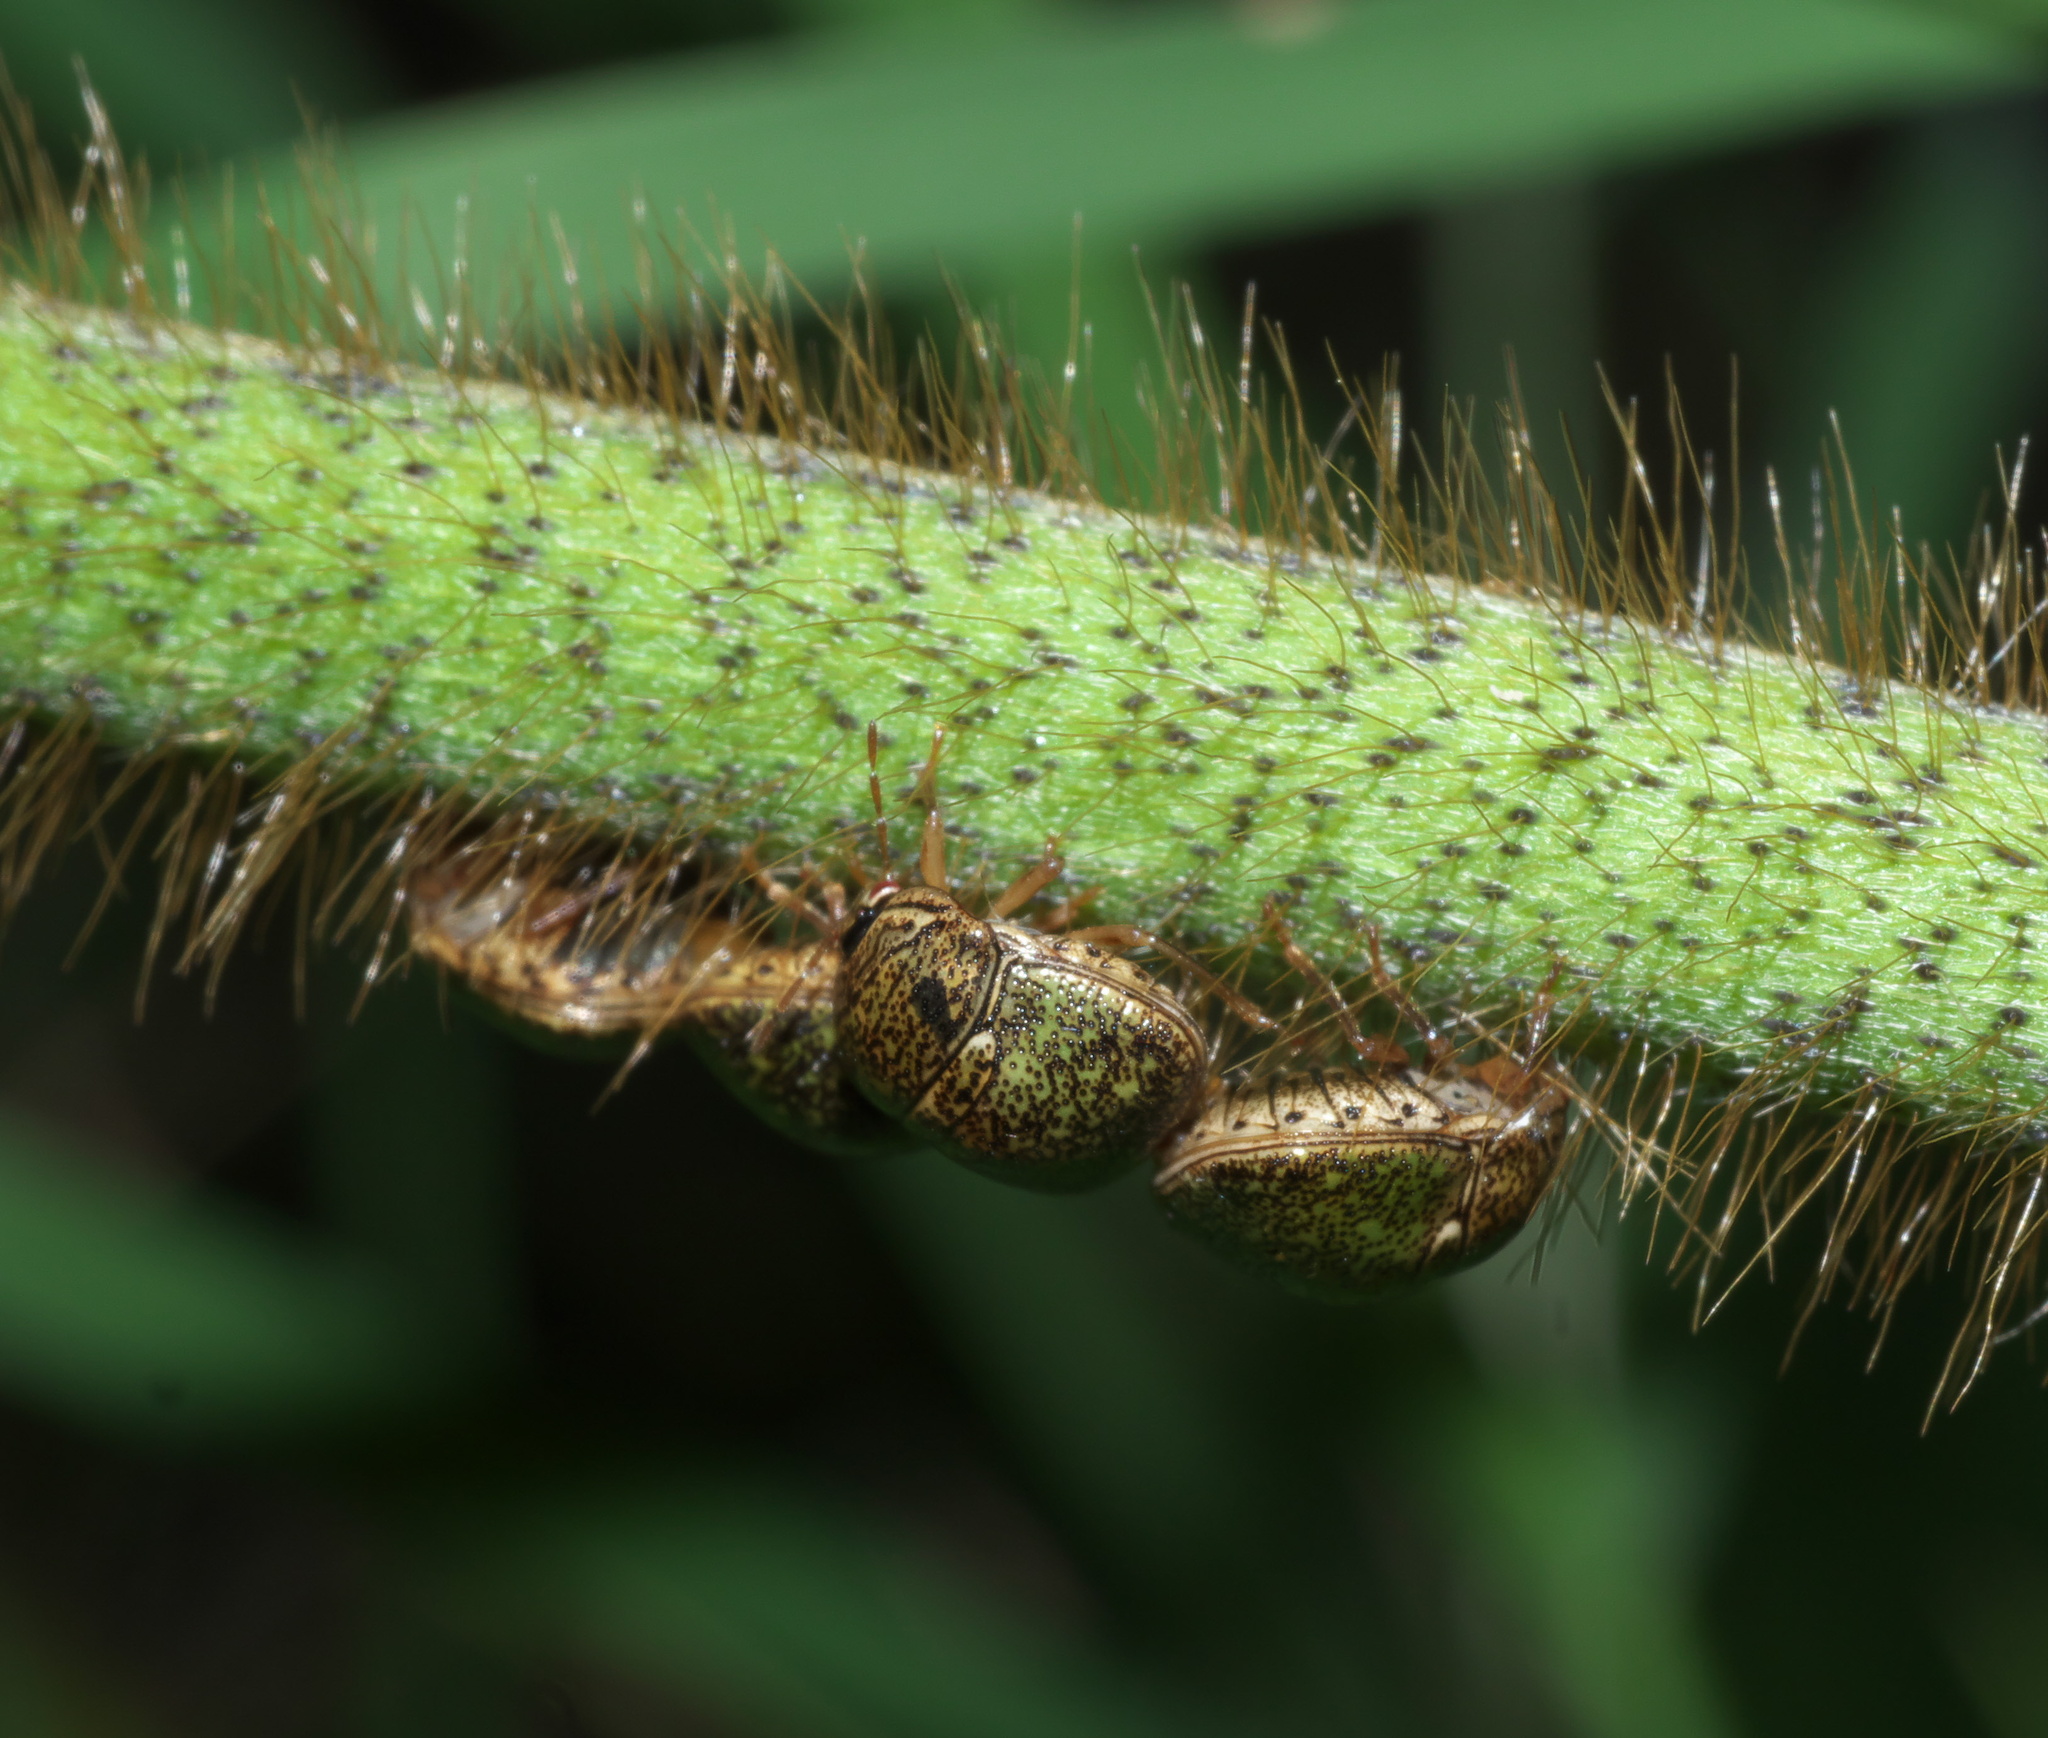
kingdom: Animalia
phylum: Arthropoda
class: Insecta
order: Hemiptera
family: Plataspidae
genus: Megacopta
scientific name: Megacopta cribraria
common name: Bean plataspid
